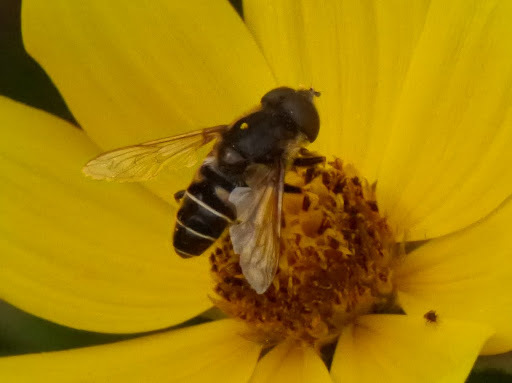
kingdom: Animalia
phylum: Arthropoda
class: Insecta
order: Diptera
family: Syrphidae
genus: Eristalis
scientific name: Eristalis dimidiata
